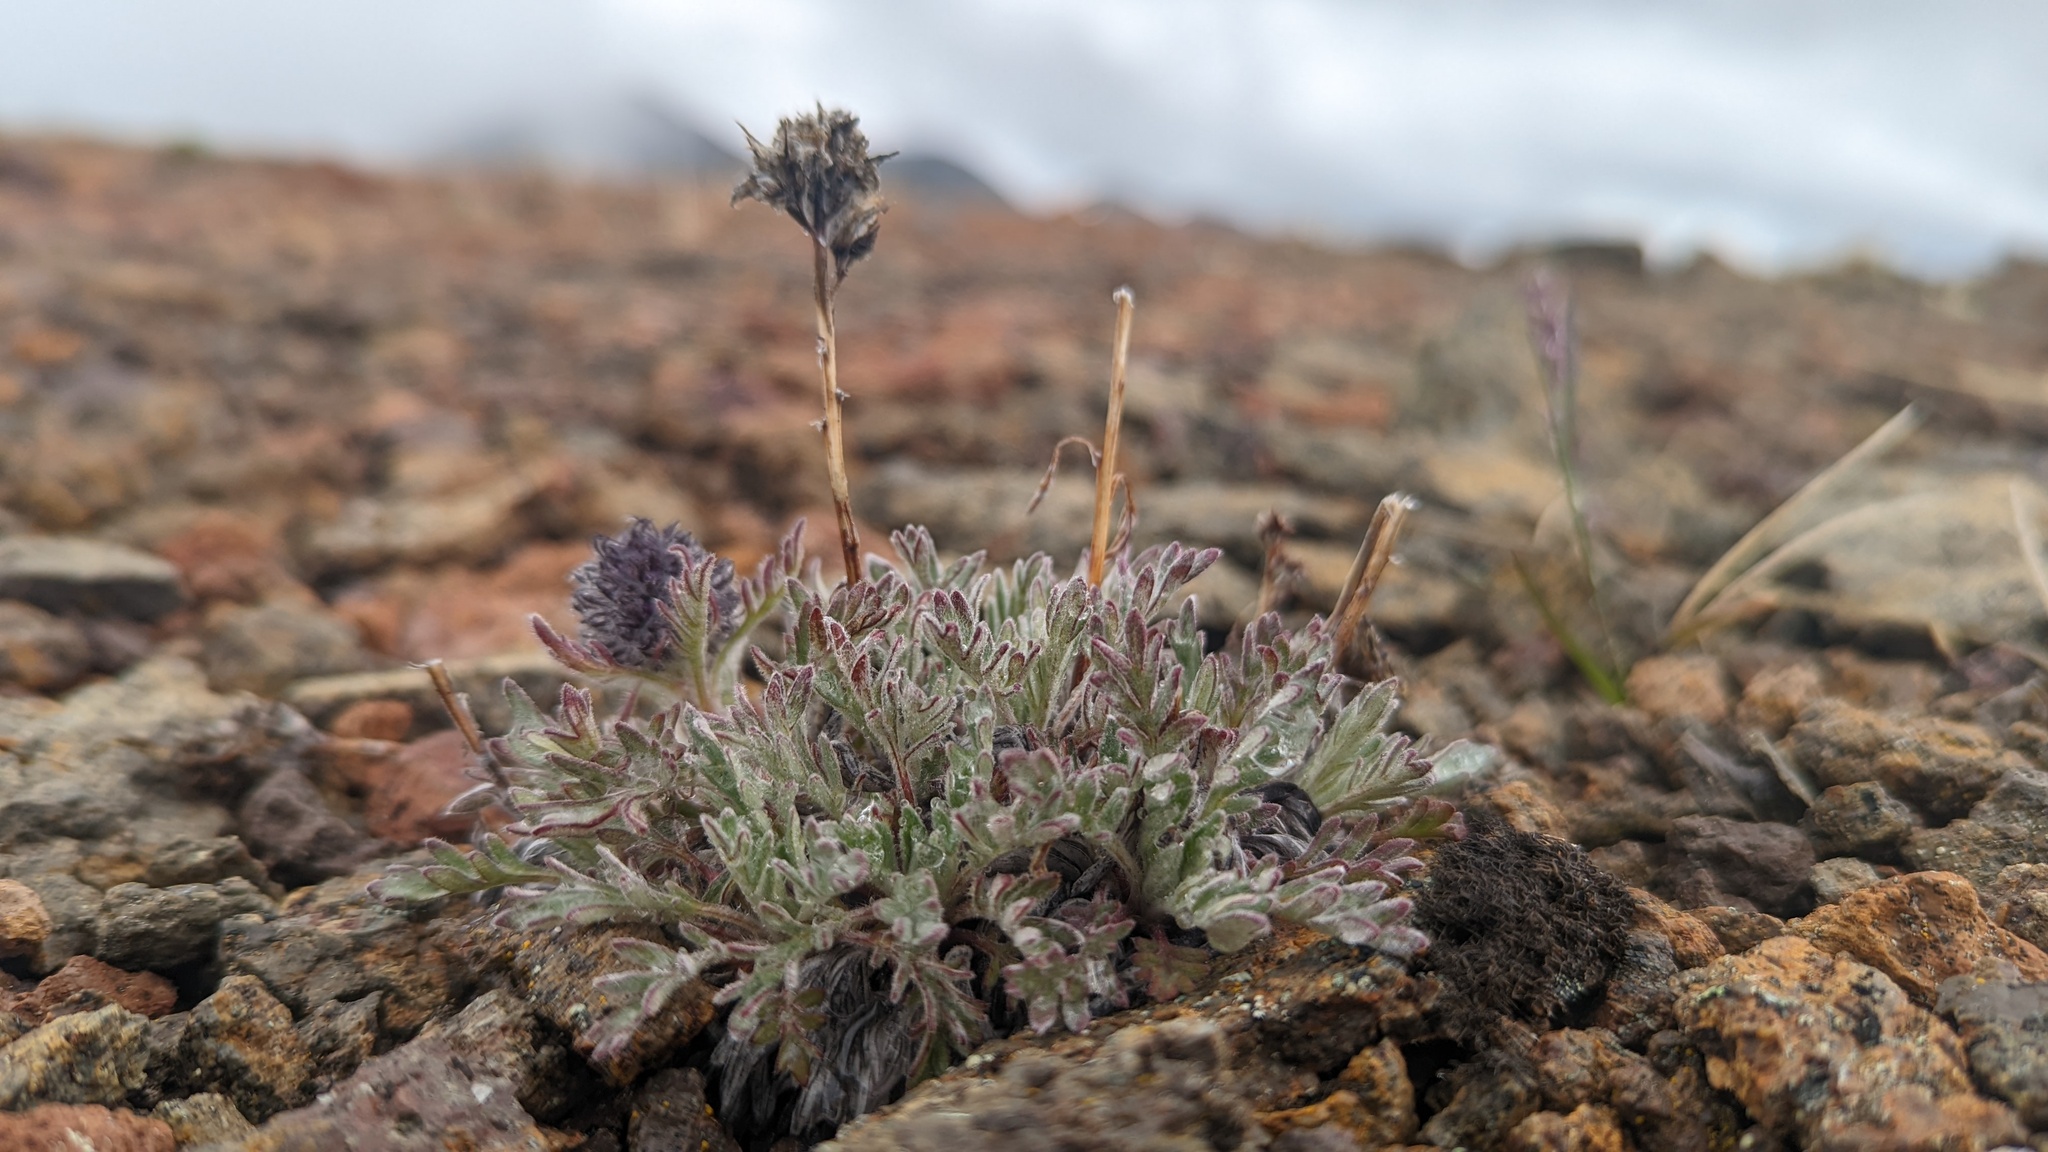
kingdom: Plantae
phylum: Tracheophyta
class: Magnoliopsida
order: Boraginales
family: Hydrophyllaceae
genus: Phacelia
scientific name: Phacelia sericea
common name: Silky phacelia
